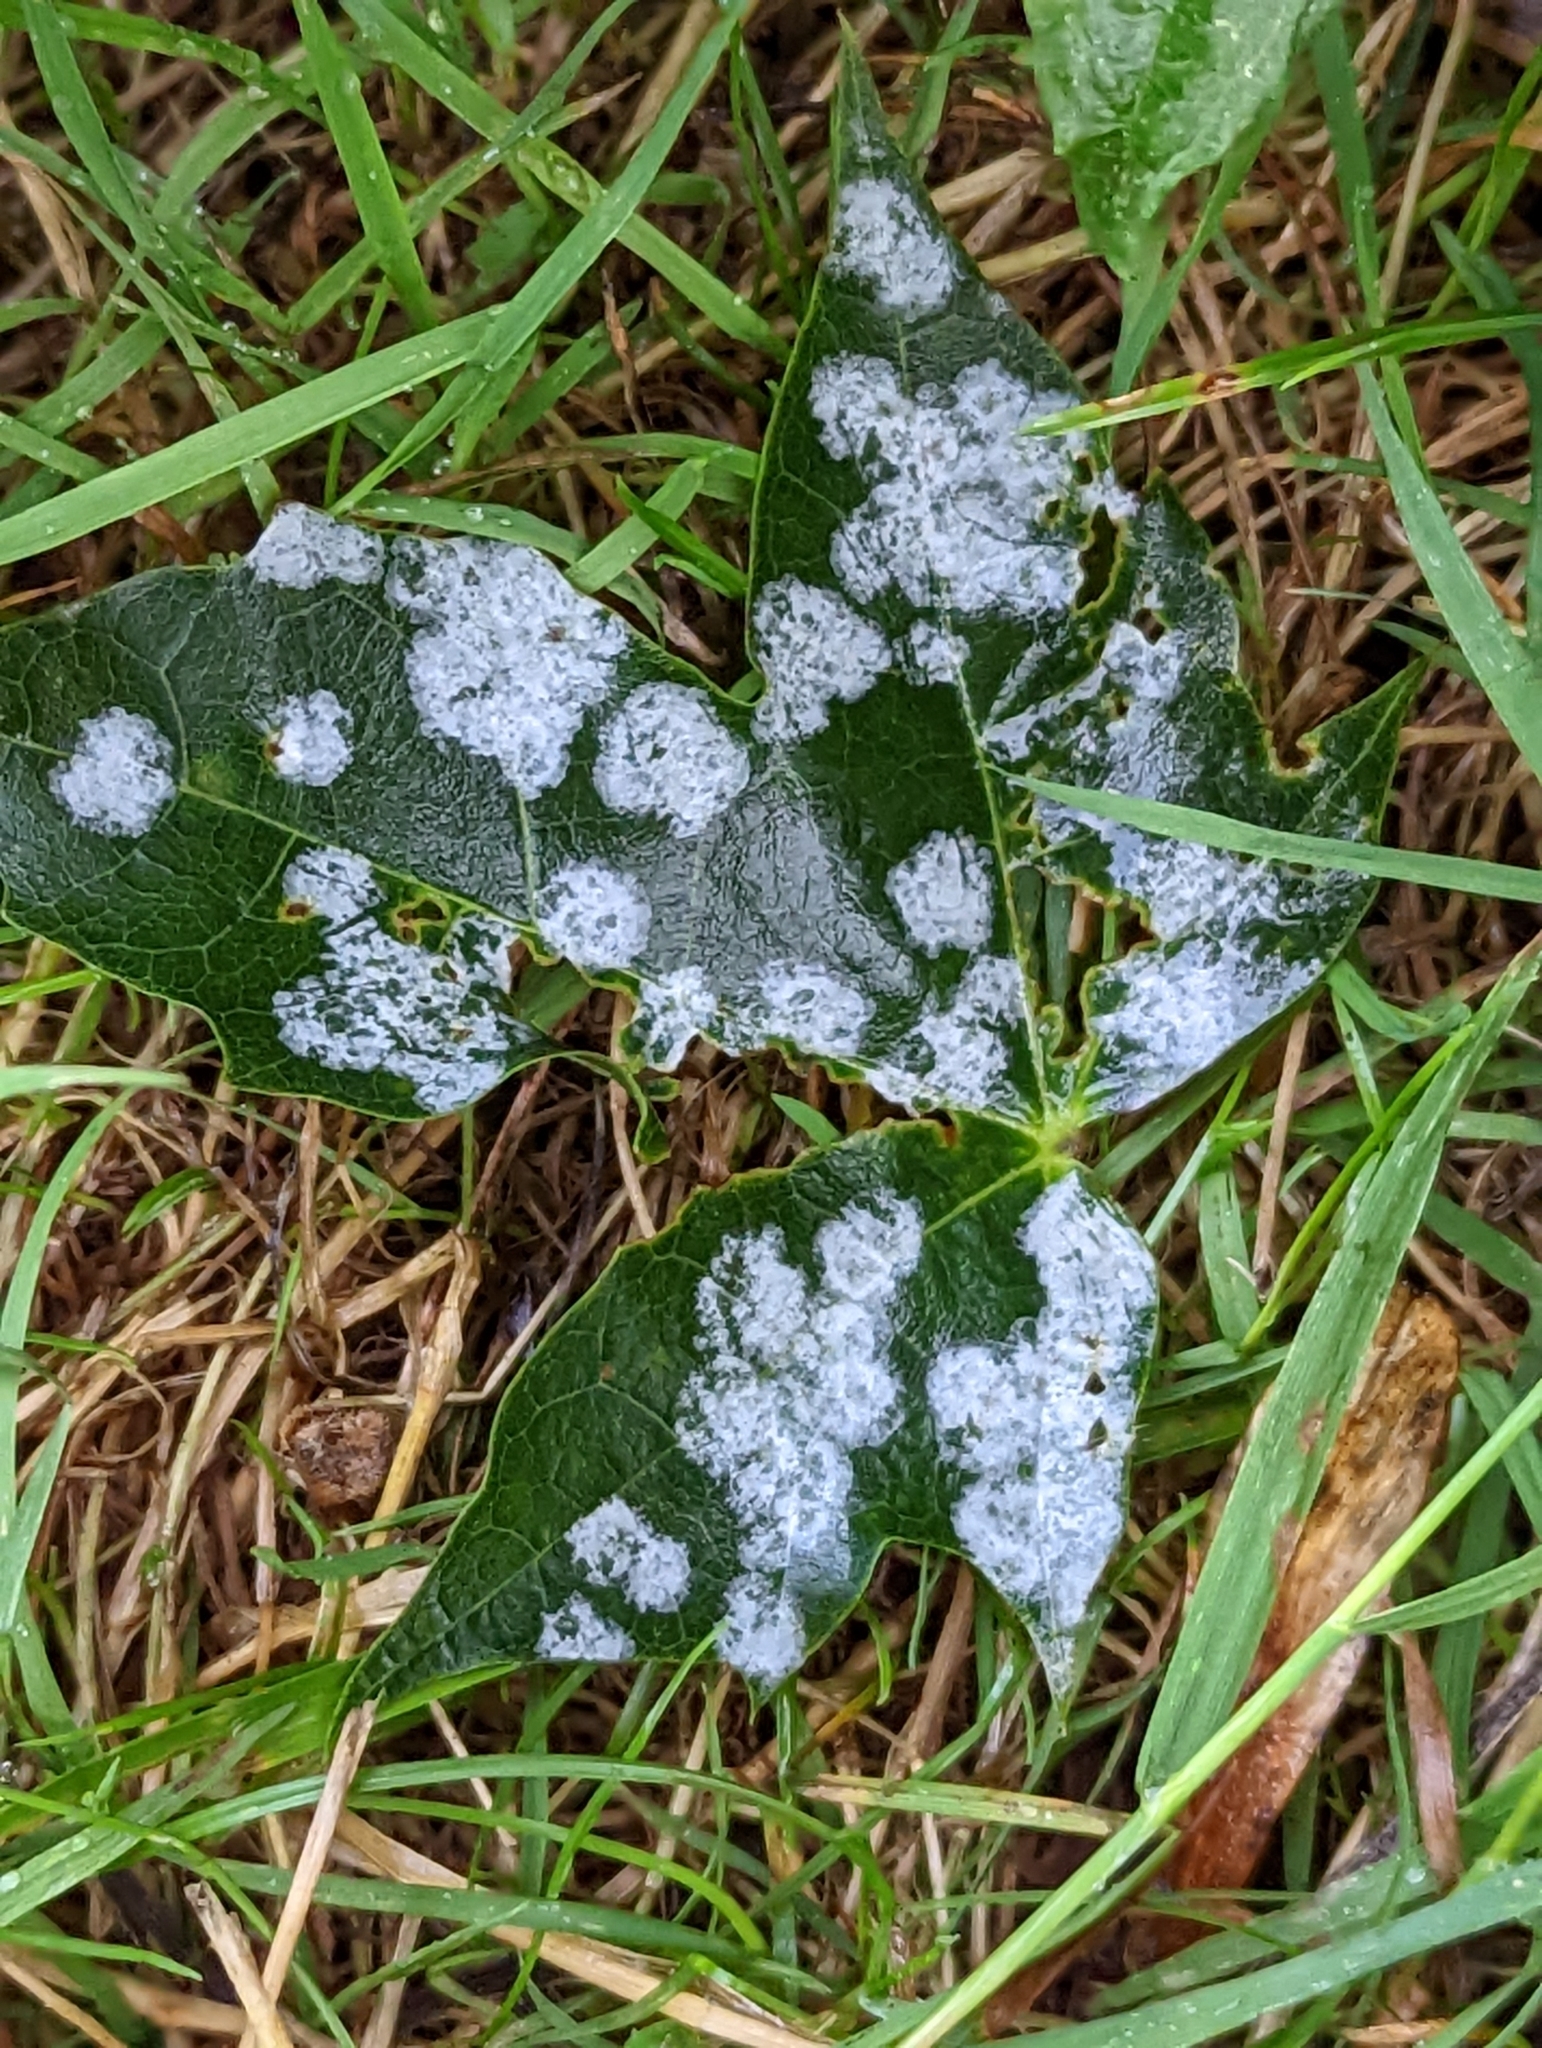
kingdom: Fungi
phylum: Ascomycota
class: Leotiomycetes
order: Helotiales
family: Erysiphaceae
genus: Sawadaea
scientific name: Sawadaea tulasnei
